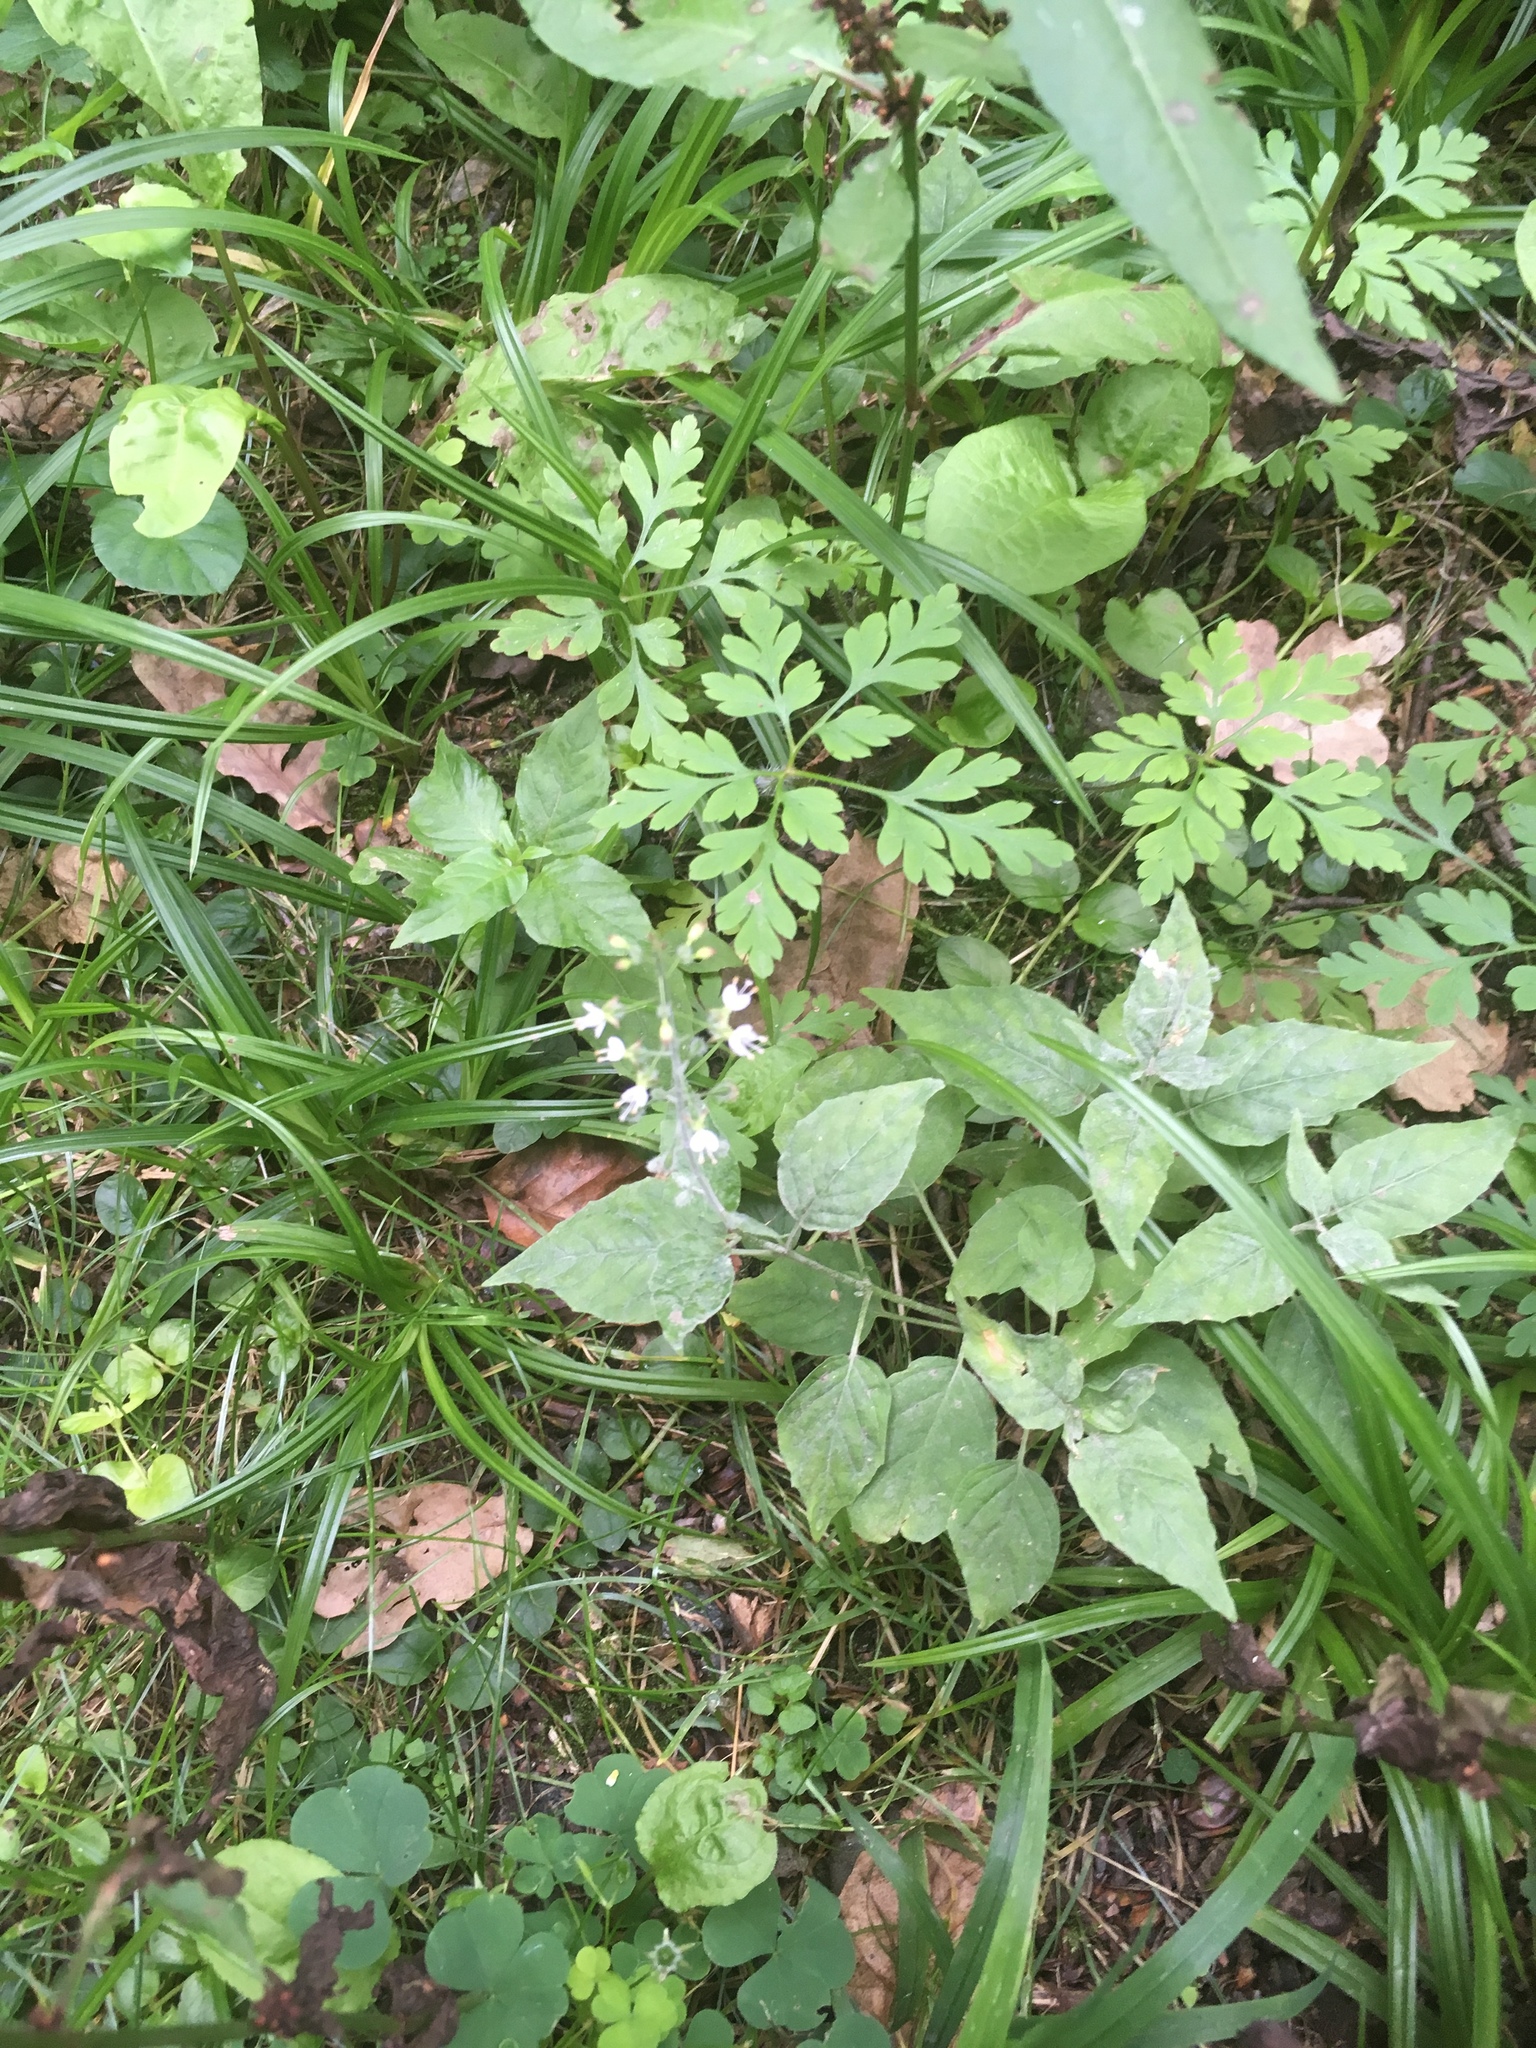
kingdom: Plantae
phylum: Tracheophyta
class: Magnoliopsida
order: Myrtales
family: Onagraceae
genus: Circaea
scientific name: Circaea lutetiana
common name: Enchanter's-nightshade
